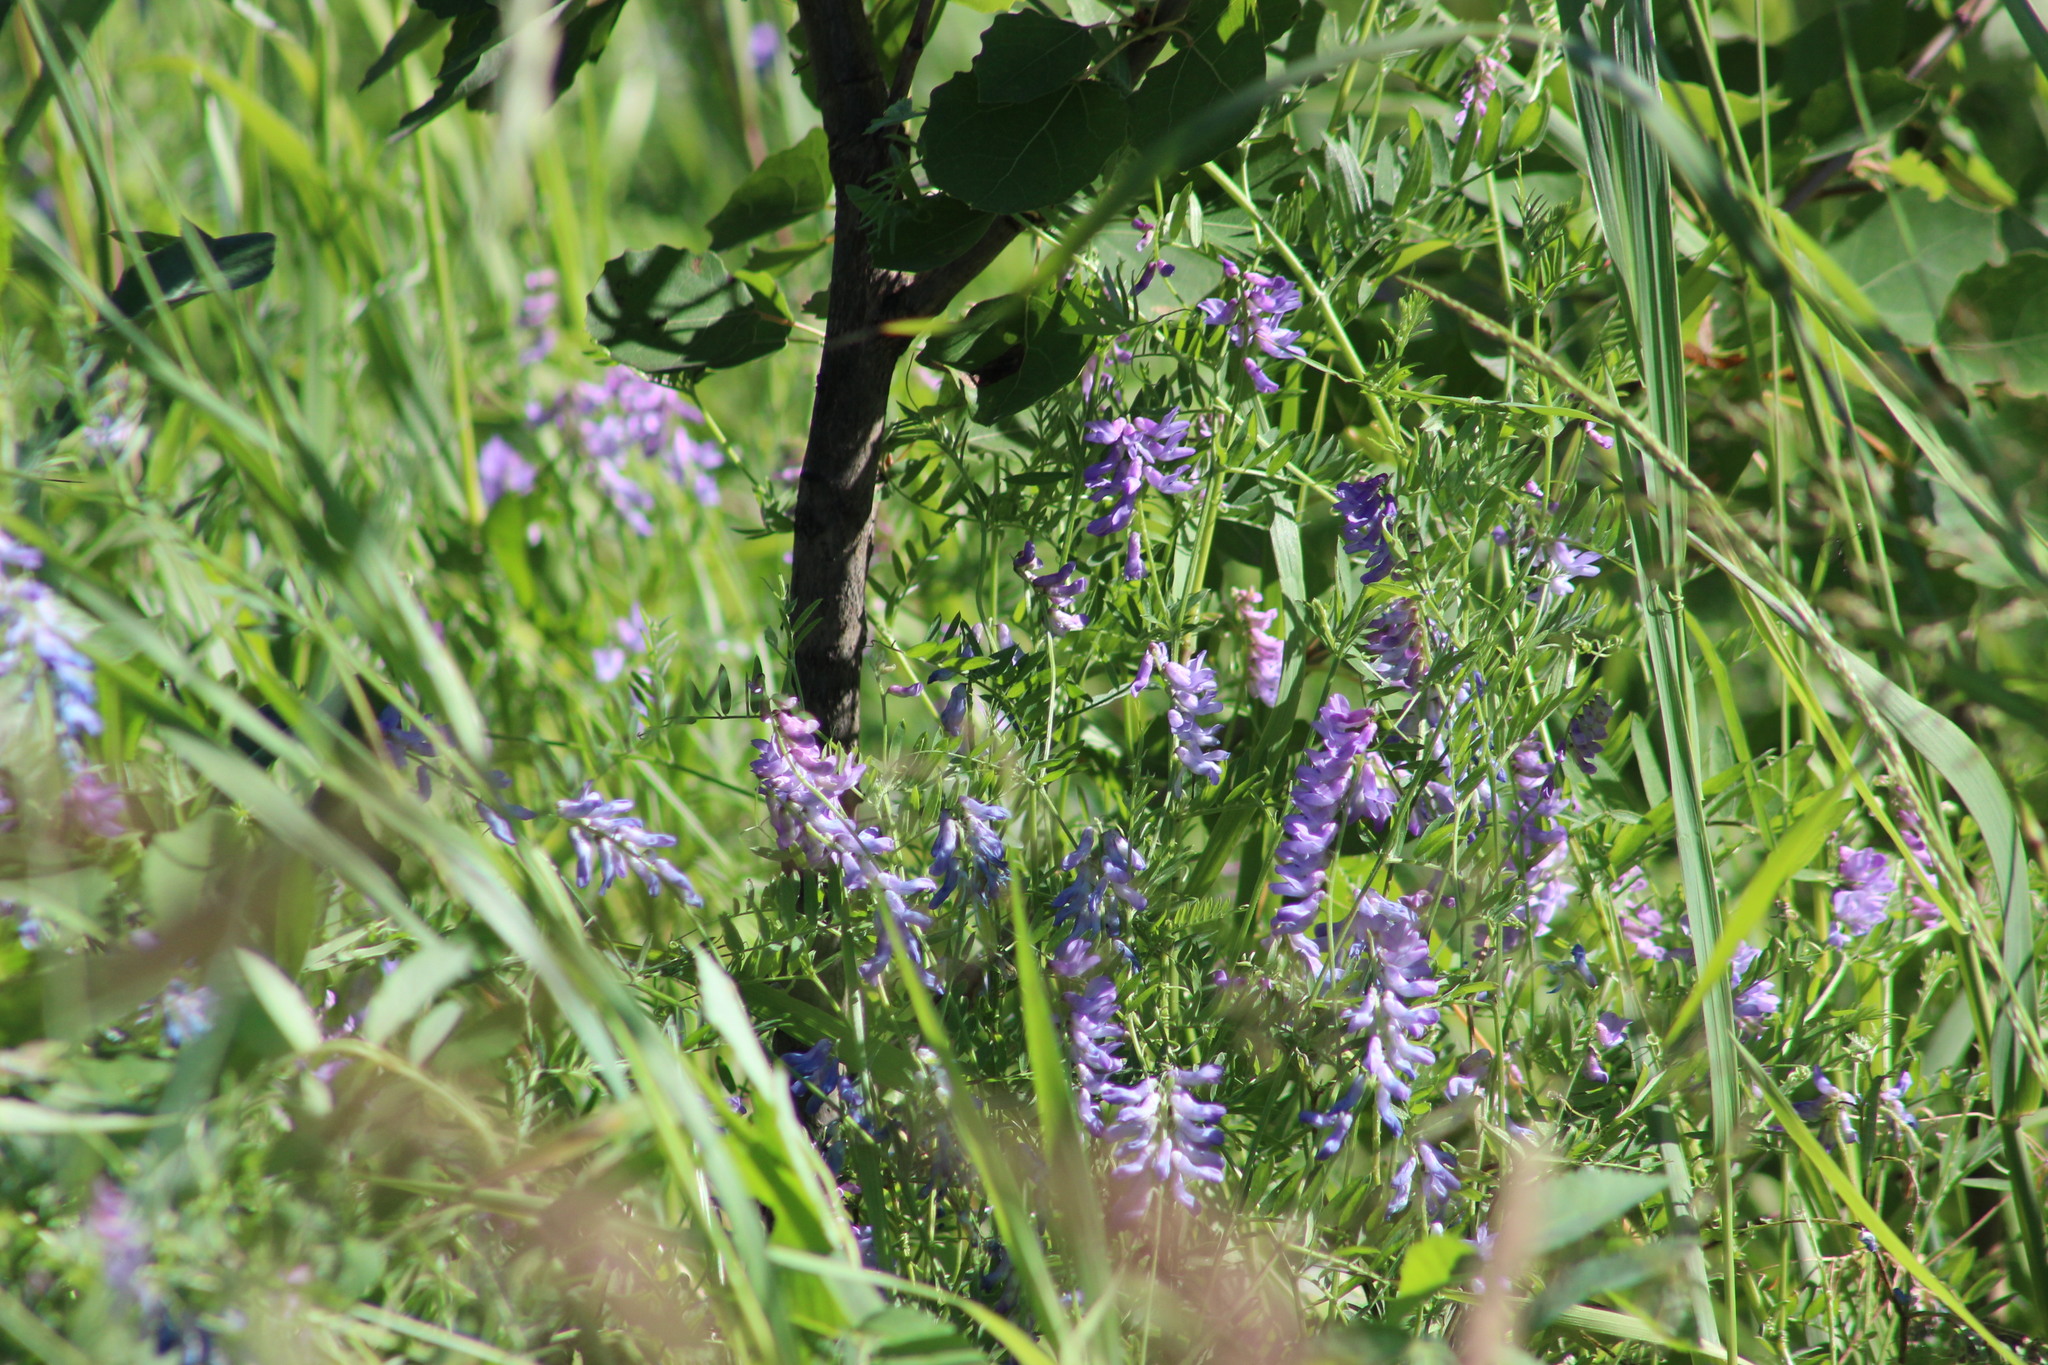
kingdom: Plantae
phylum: Tracheophyta
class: Magnoliopsida
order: Fabales
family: Fabaceae
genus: Vicia
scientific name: Vicia cracca
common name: Bird vetch
